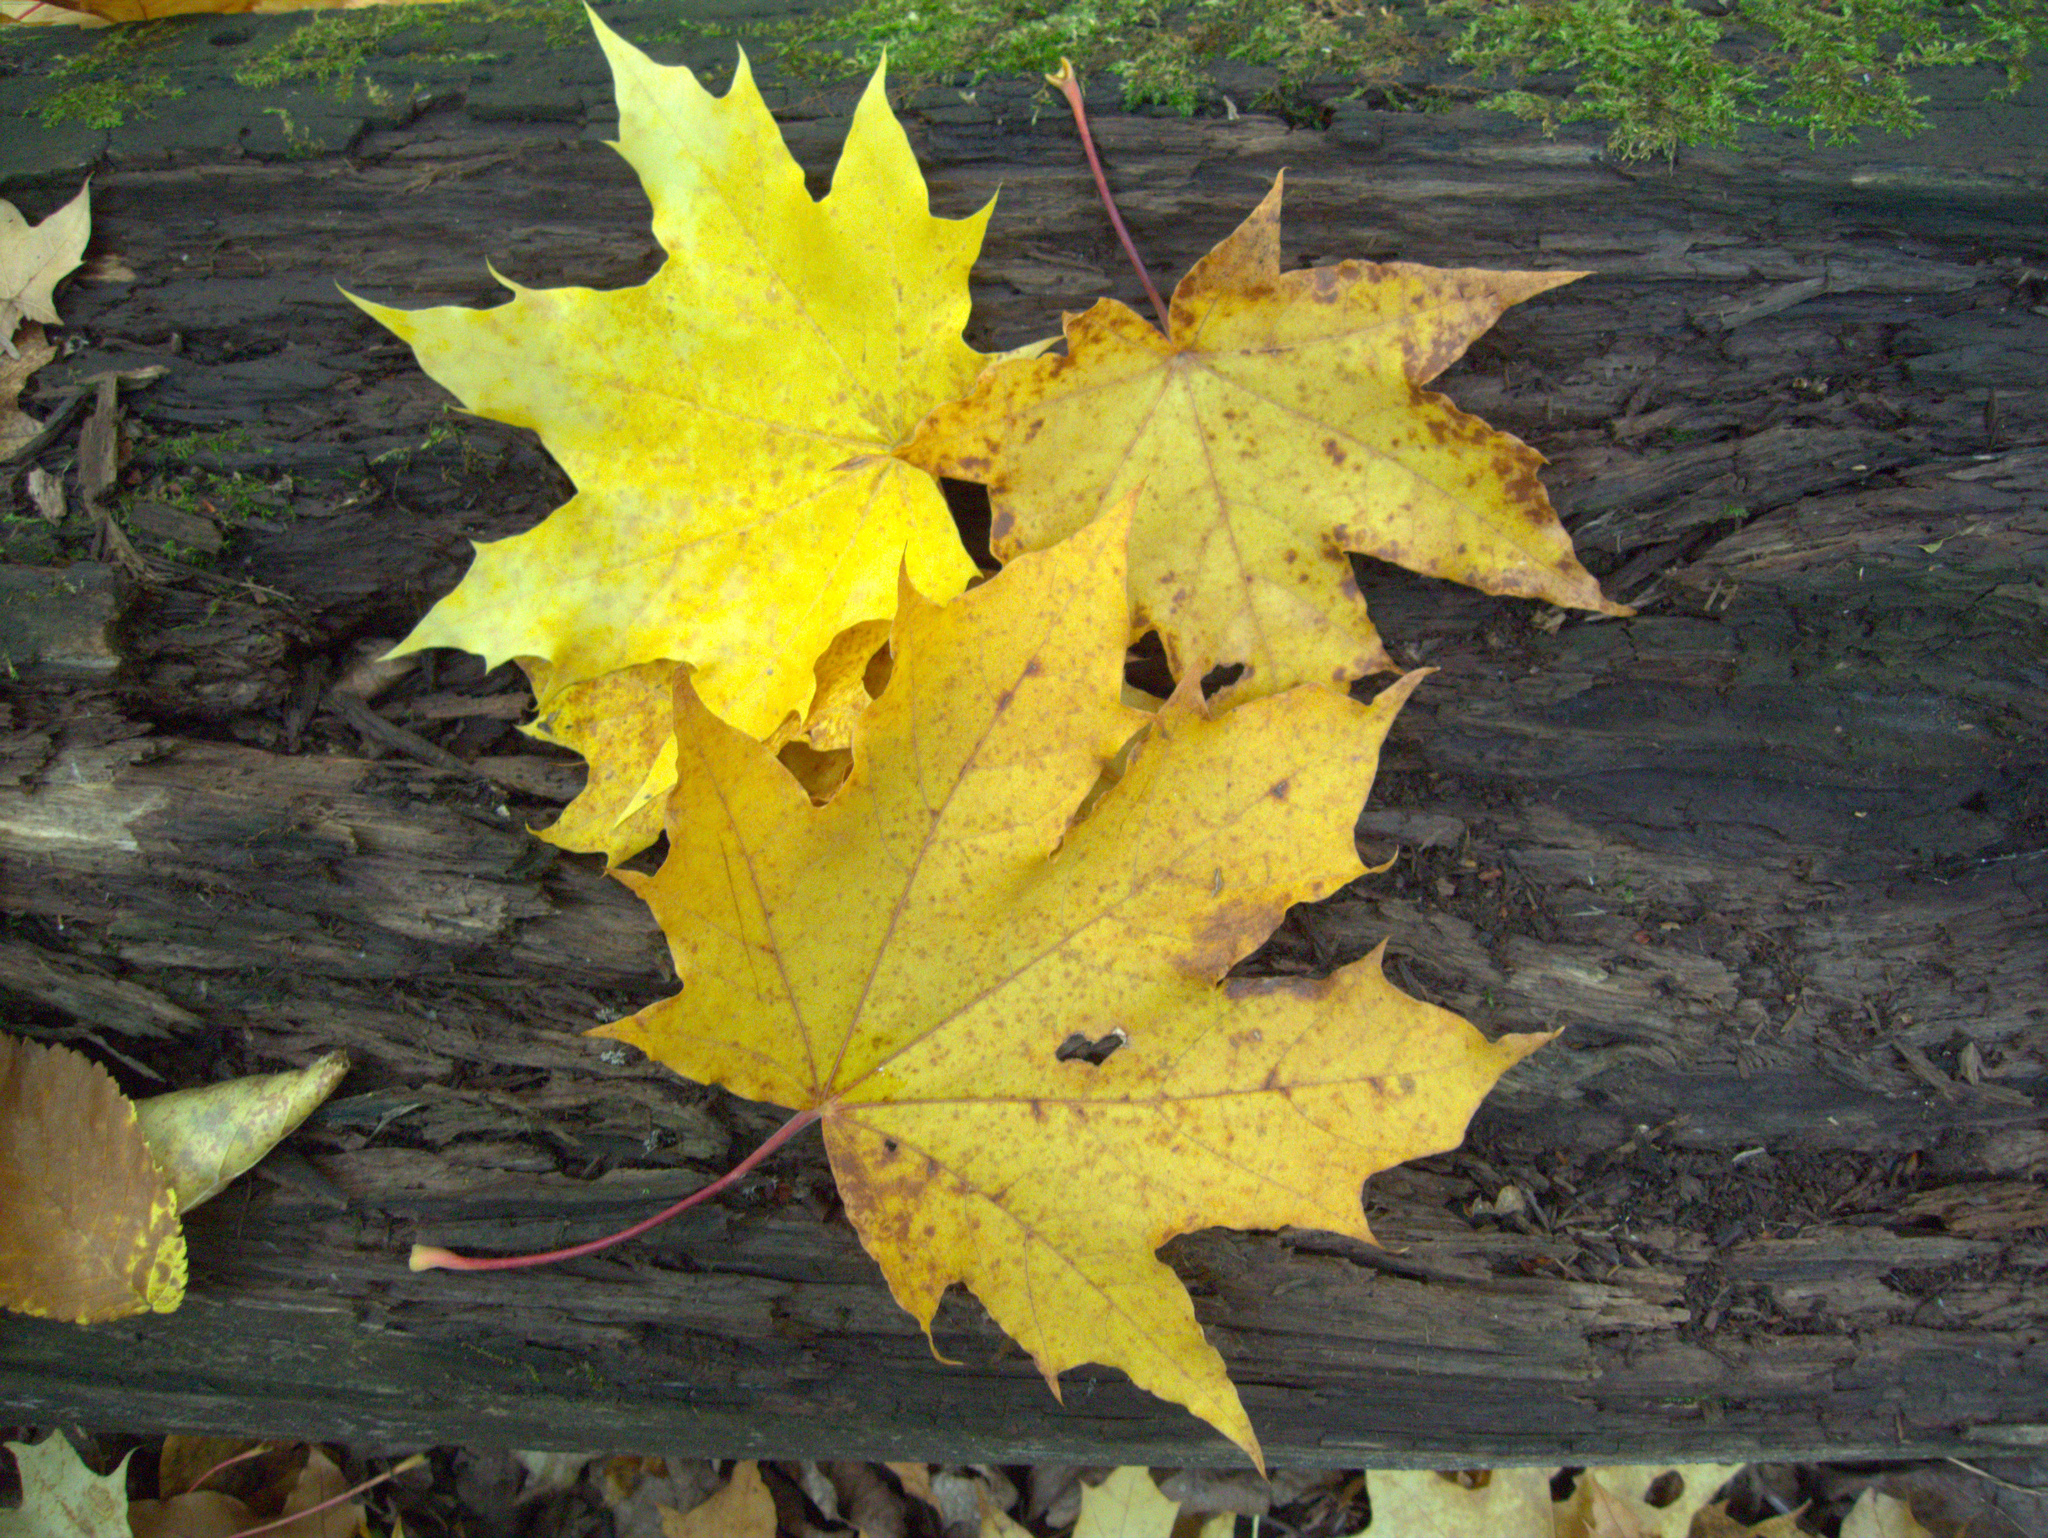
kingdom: Plantae
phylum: Tracheophyta
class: Magnoliopsida
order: Sapindales
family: Sapindaceae
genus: Acer
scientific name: Acer platanoides
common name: Norway maple
